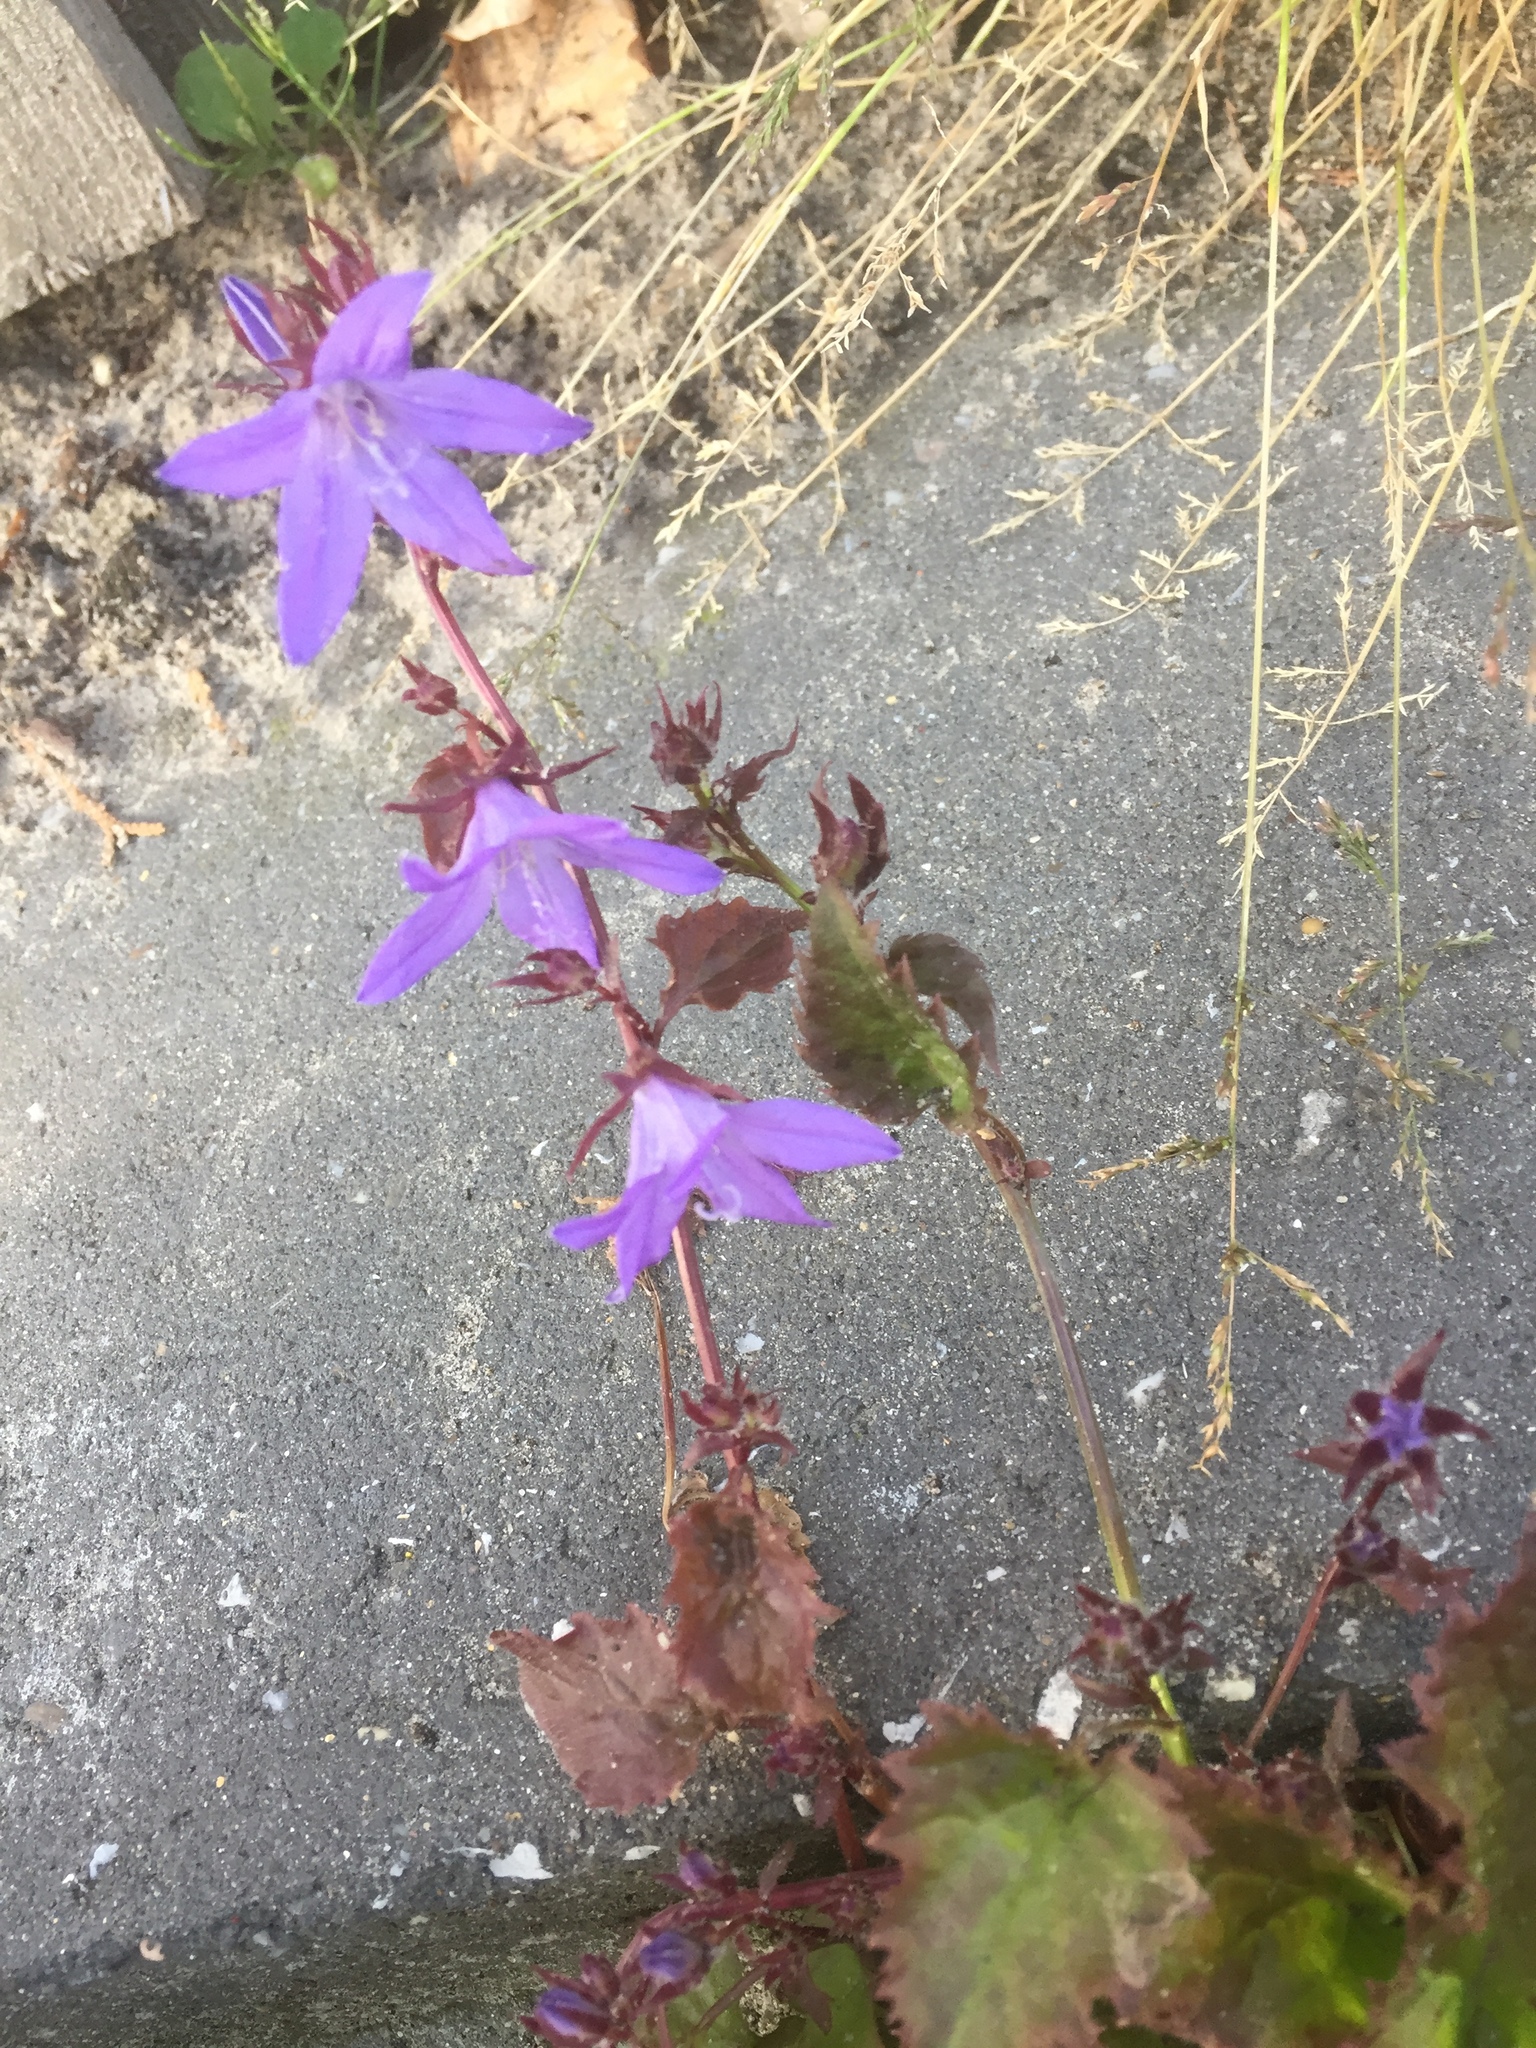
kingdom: Plantae
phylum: Tracheophyta
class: Magnoliopsida
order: Asterales
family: Campanulaceae
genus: Campanula
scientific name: Campanula poscharskyana
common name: Trailing bellflower
